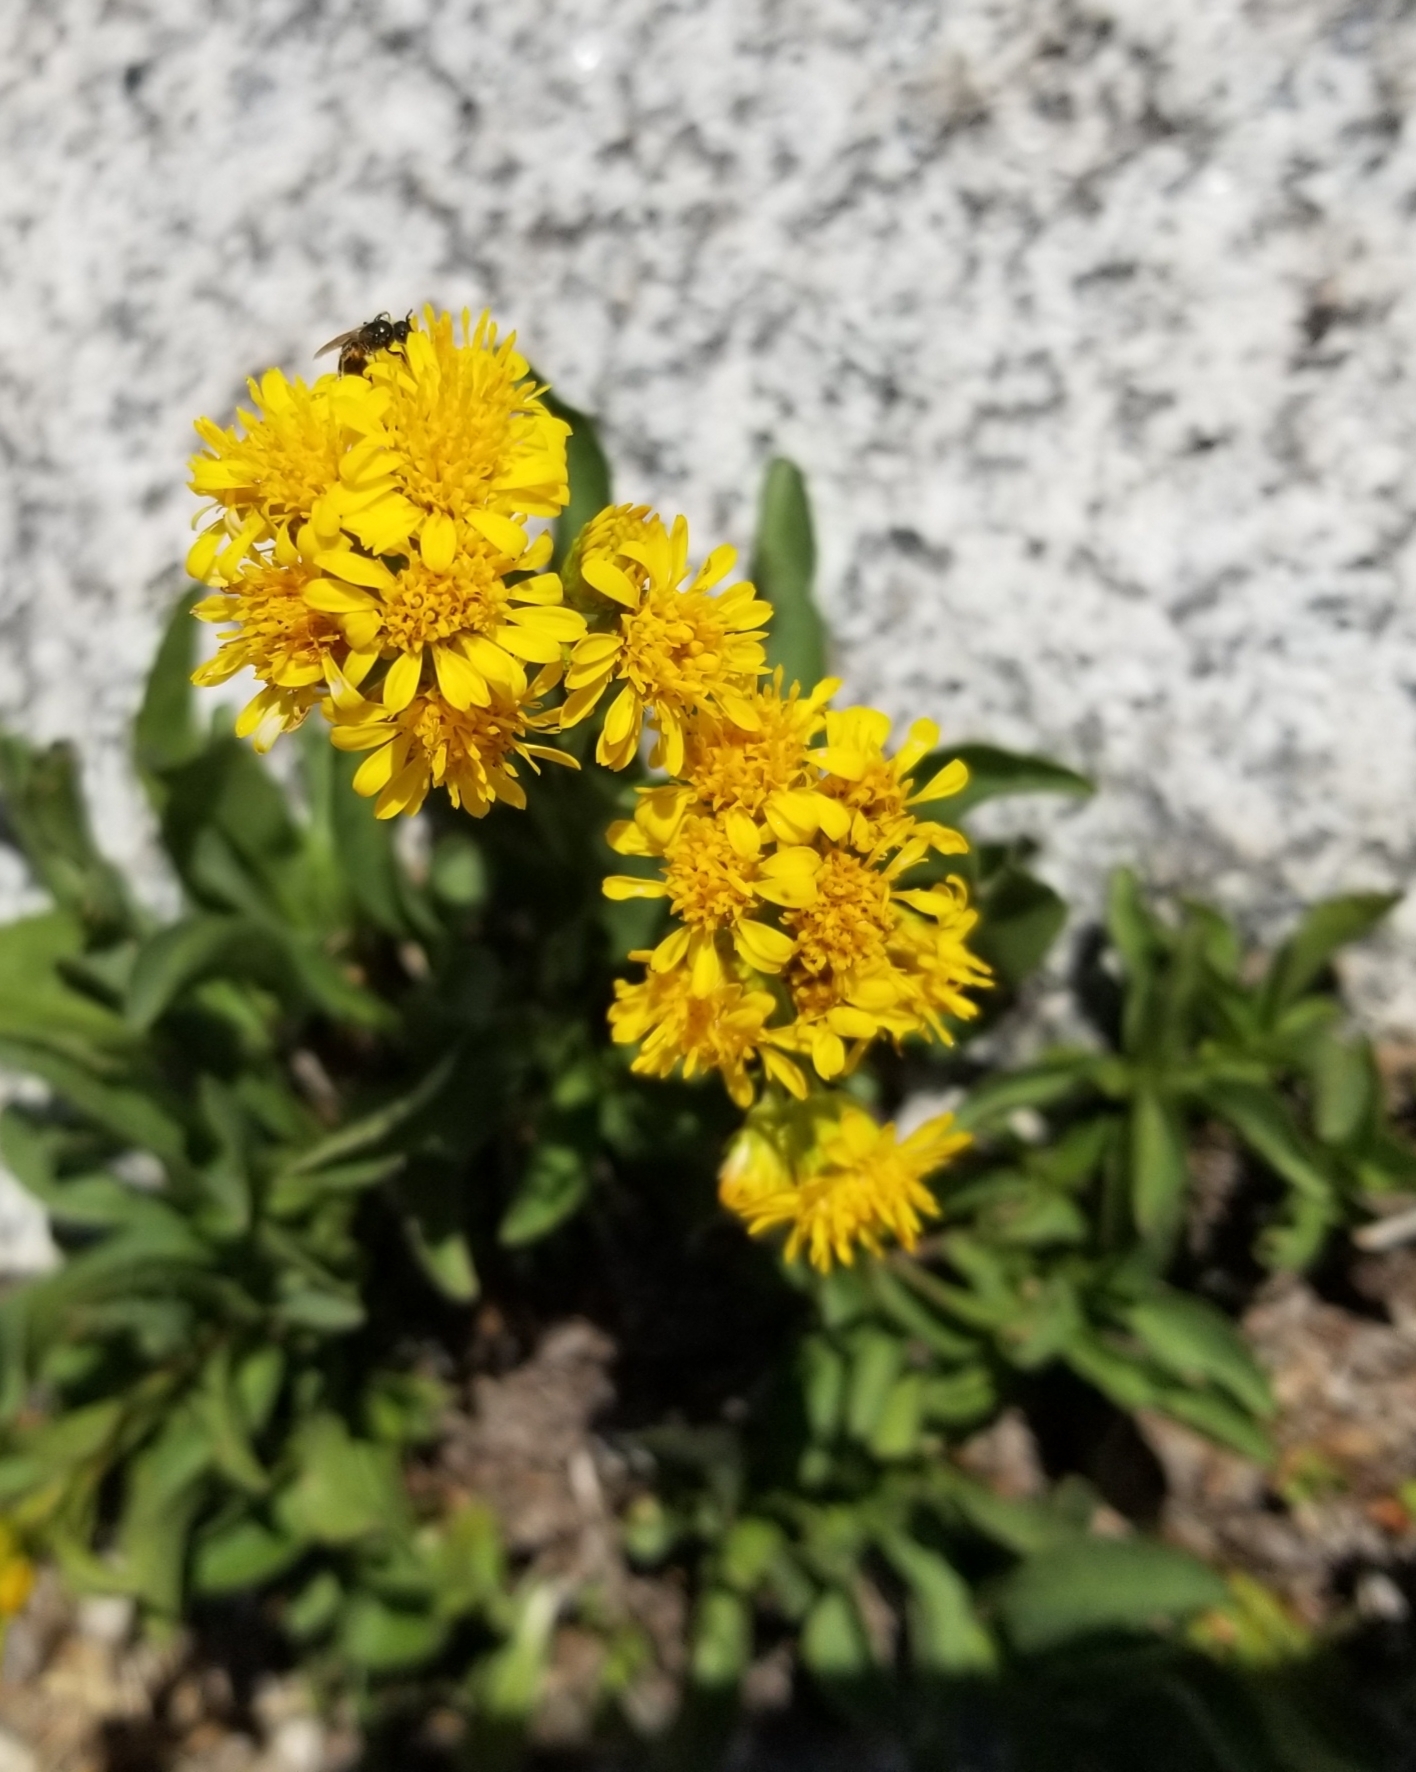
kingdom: Plantae
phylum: Tracheophyta
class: Magnoliopsida
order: Asterales
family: Asteraceae
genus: Solidago
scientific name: Solidago multiradiata
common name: Northern goldenrod
